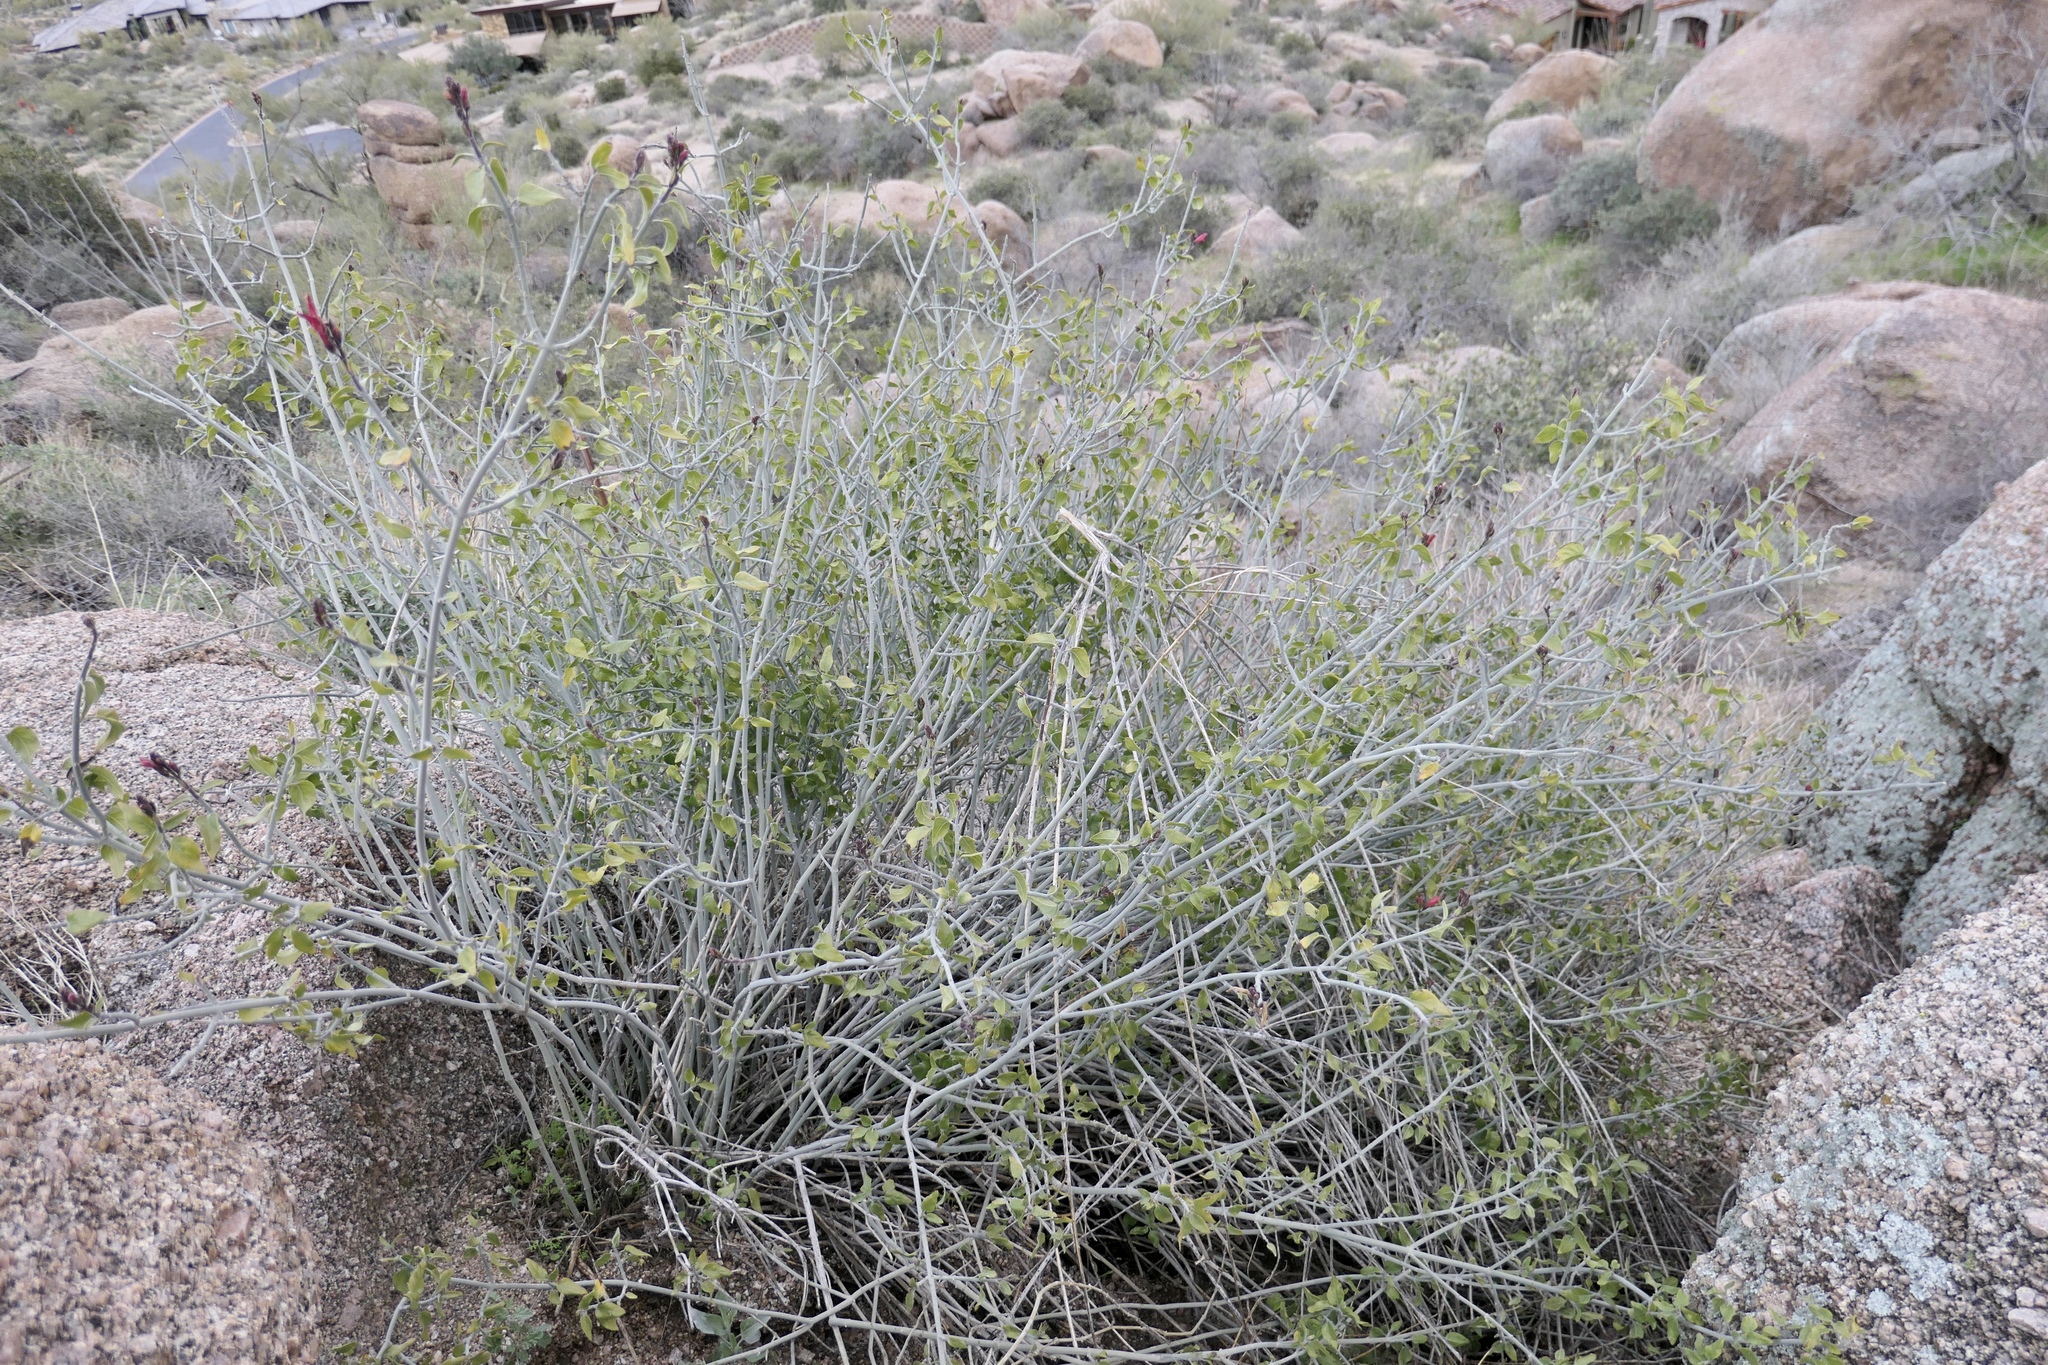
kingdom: Plantae
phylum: Tracheophyta
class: Magnoliopsida
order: Lamiales
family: Acanthaceae
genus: Justicia
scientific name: Justicia californica
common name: Chuparosa-honeysuckle
